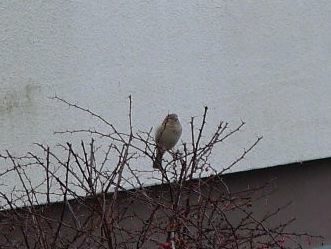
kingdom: Animalia
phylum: Chordata
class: Aves
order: Passeriformes
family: Passeridae
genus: Passer
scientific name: Passer domesticus
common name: House sparrow
